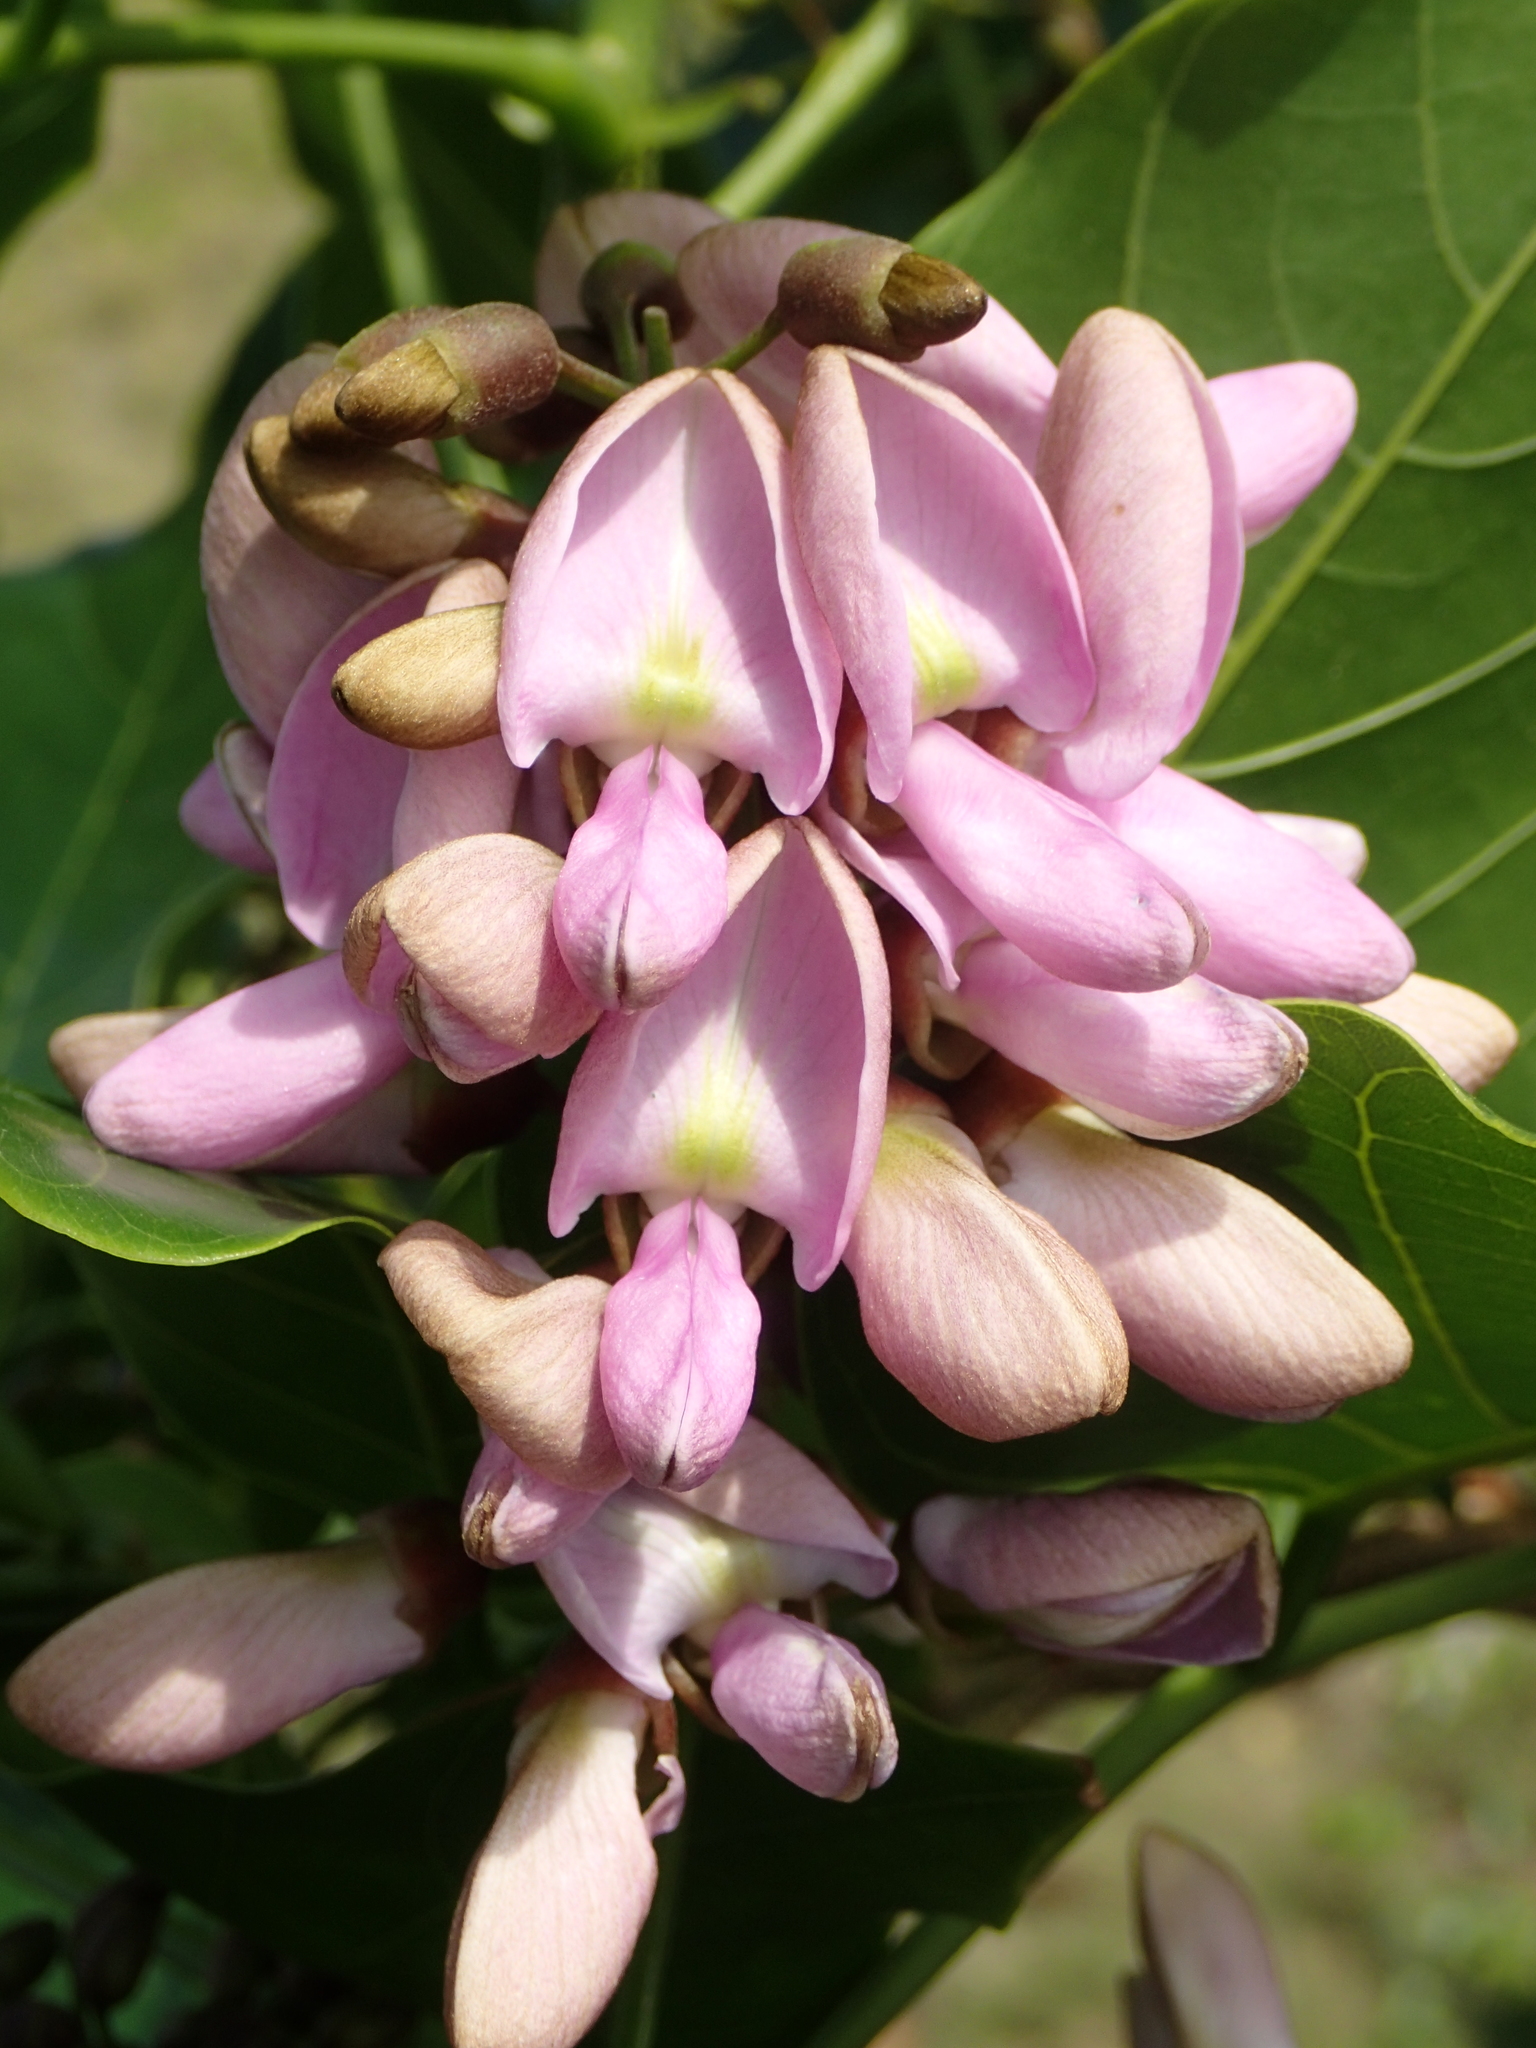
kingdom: Plantae
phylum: Tracheophyta
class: Magnoliopsida
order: Fabales
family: Fabaceae
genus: Pongamia
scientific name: Pongamia pinnata
